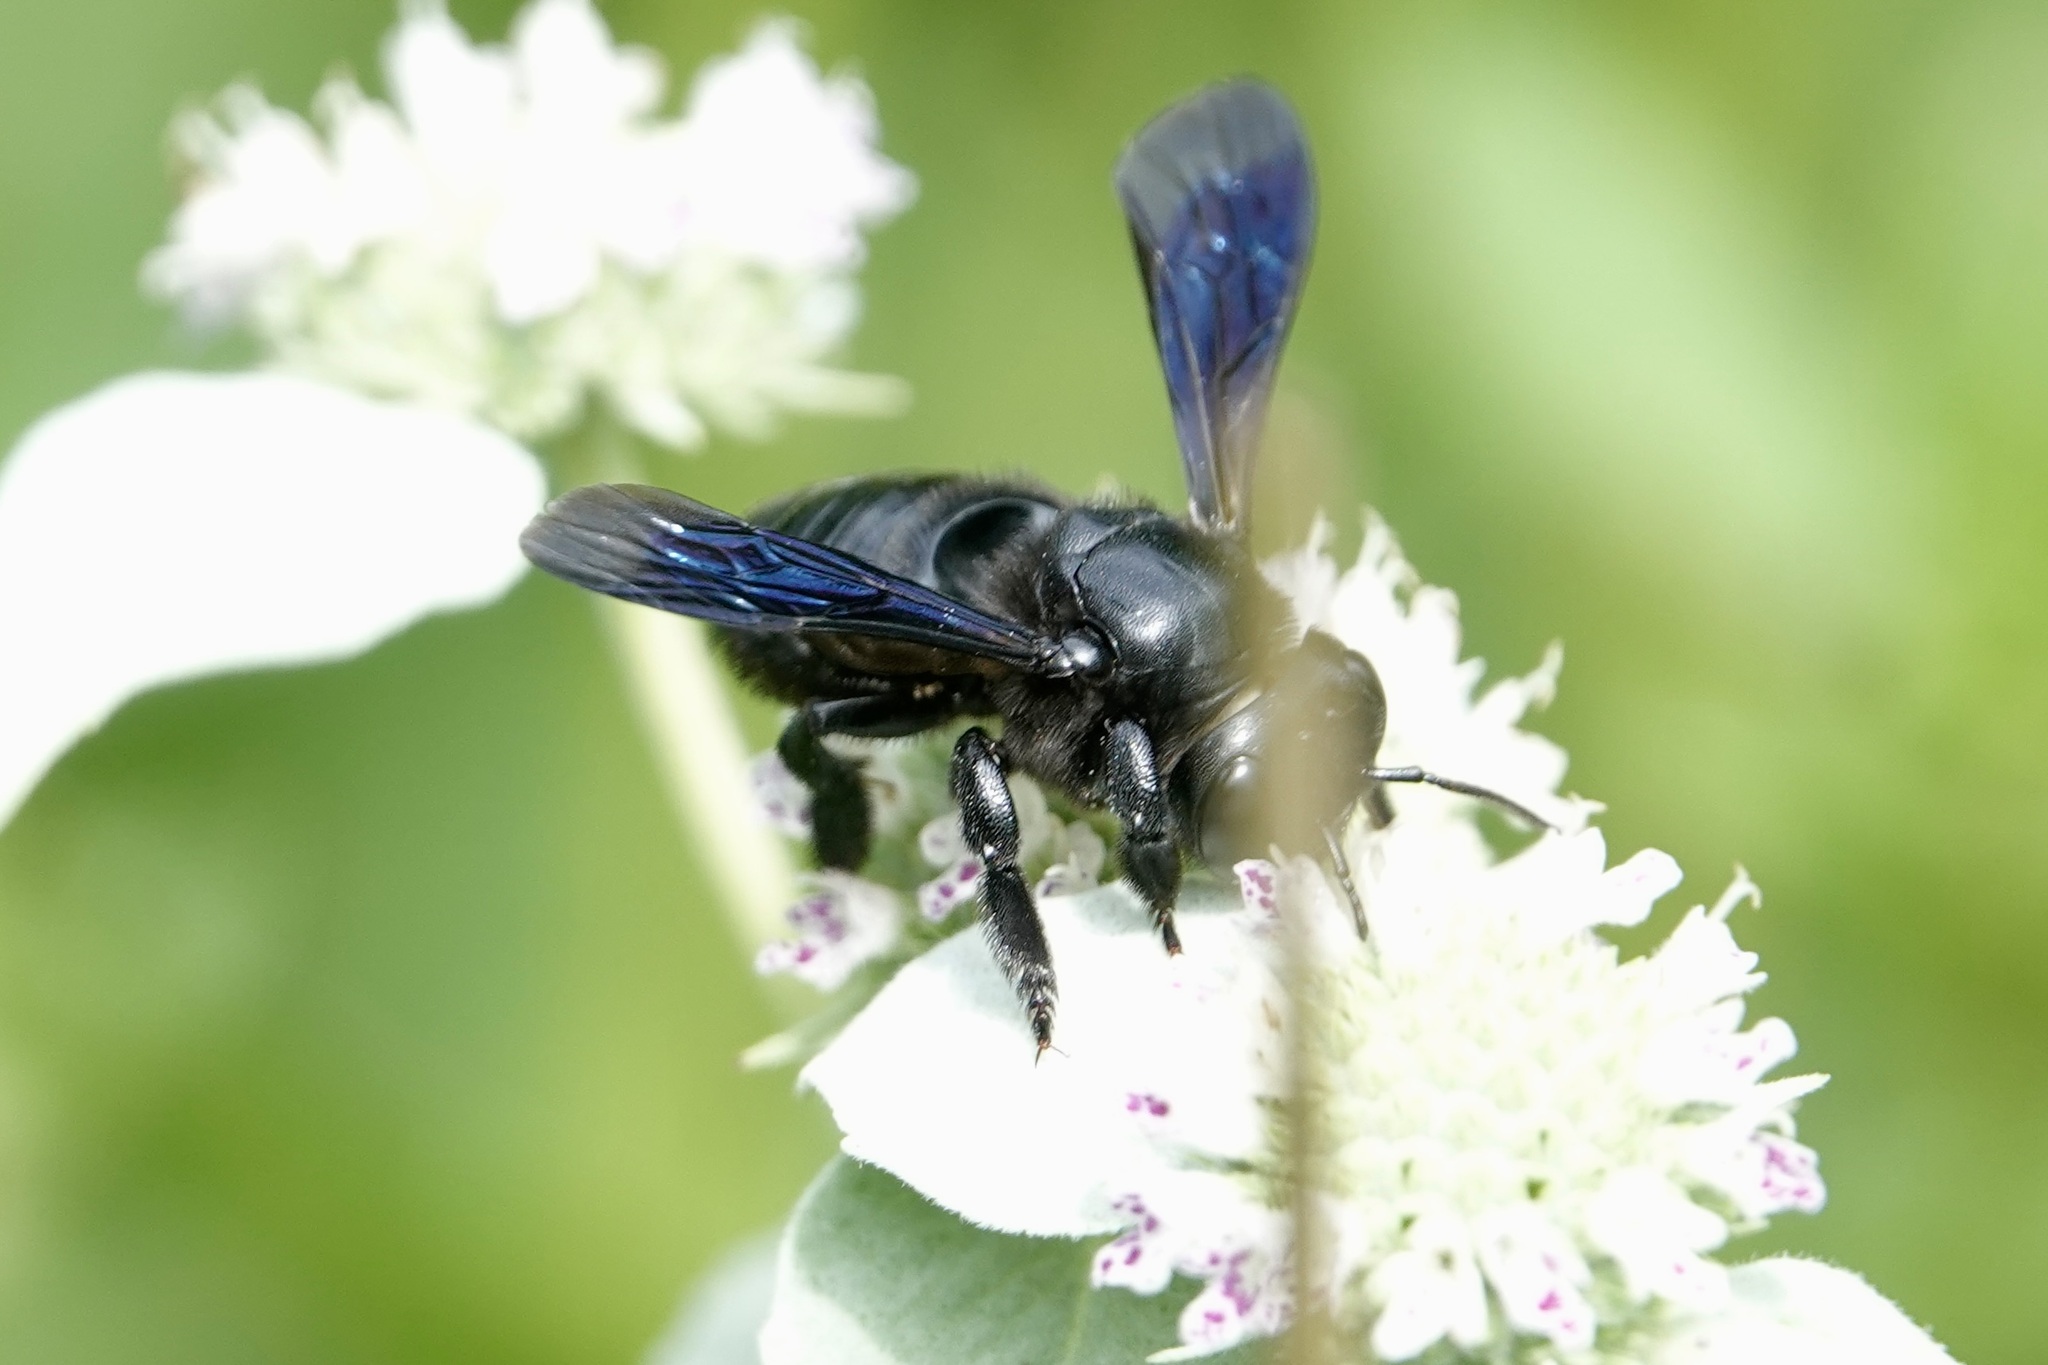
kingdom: Animalia
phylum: Arthropoda
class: Insecta
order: Hymenoptera
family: Megachilidae
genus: Megachile
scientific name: Megachile xylocopoides
